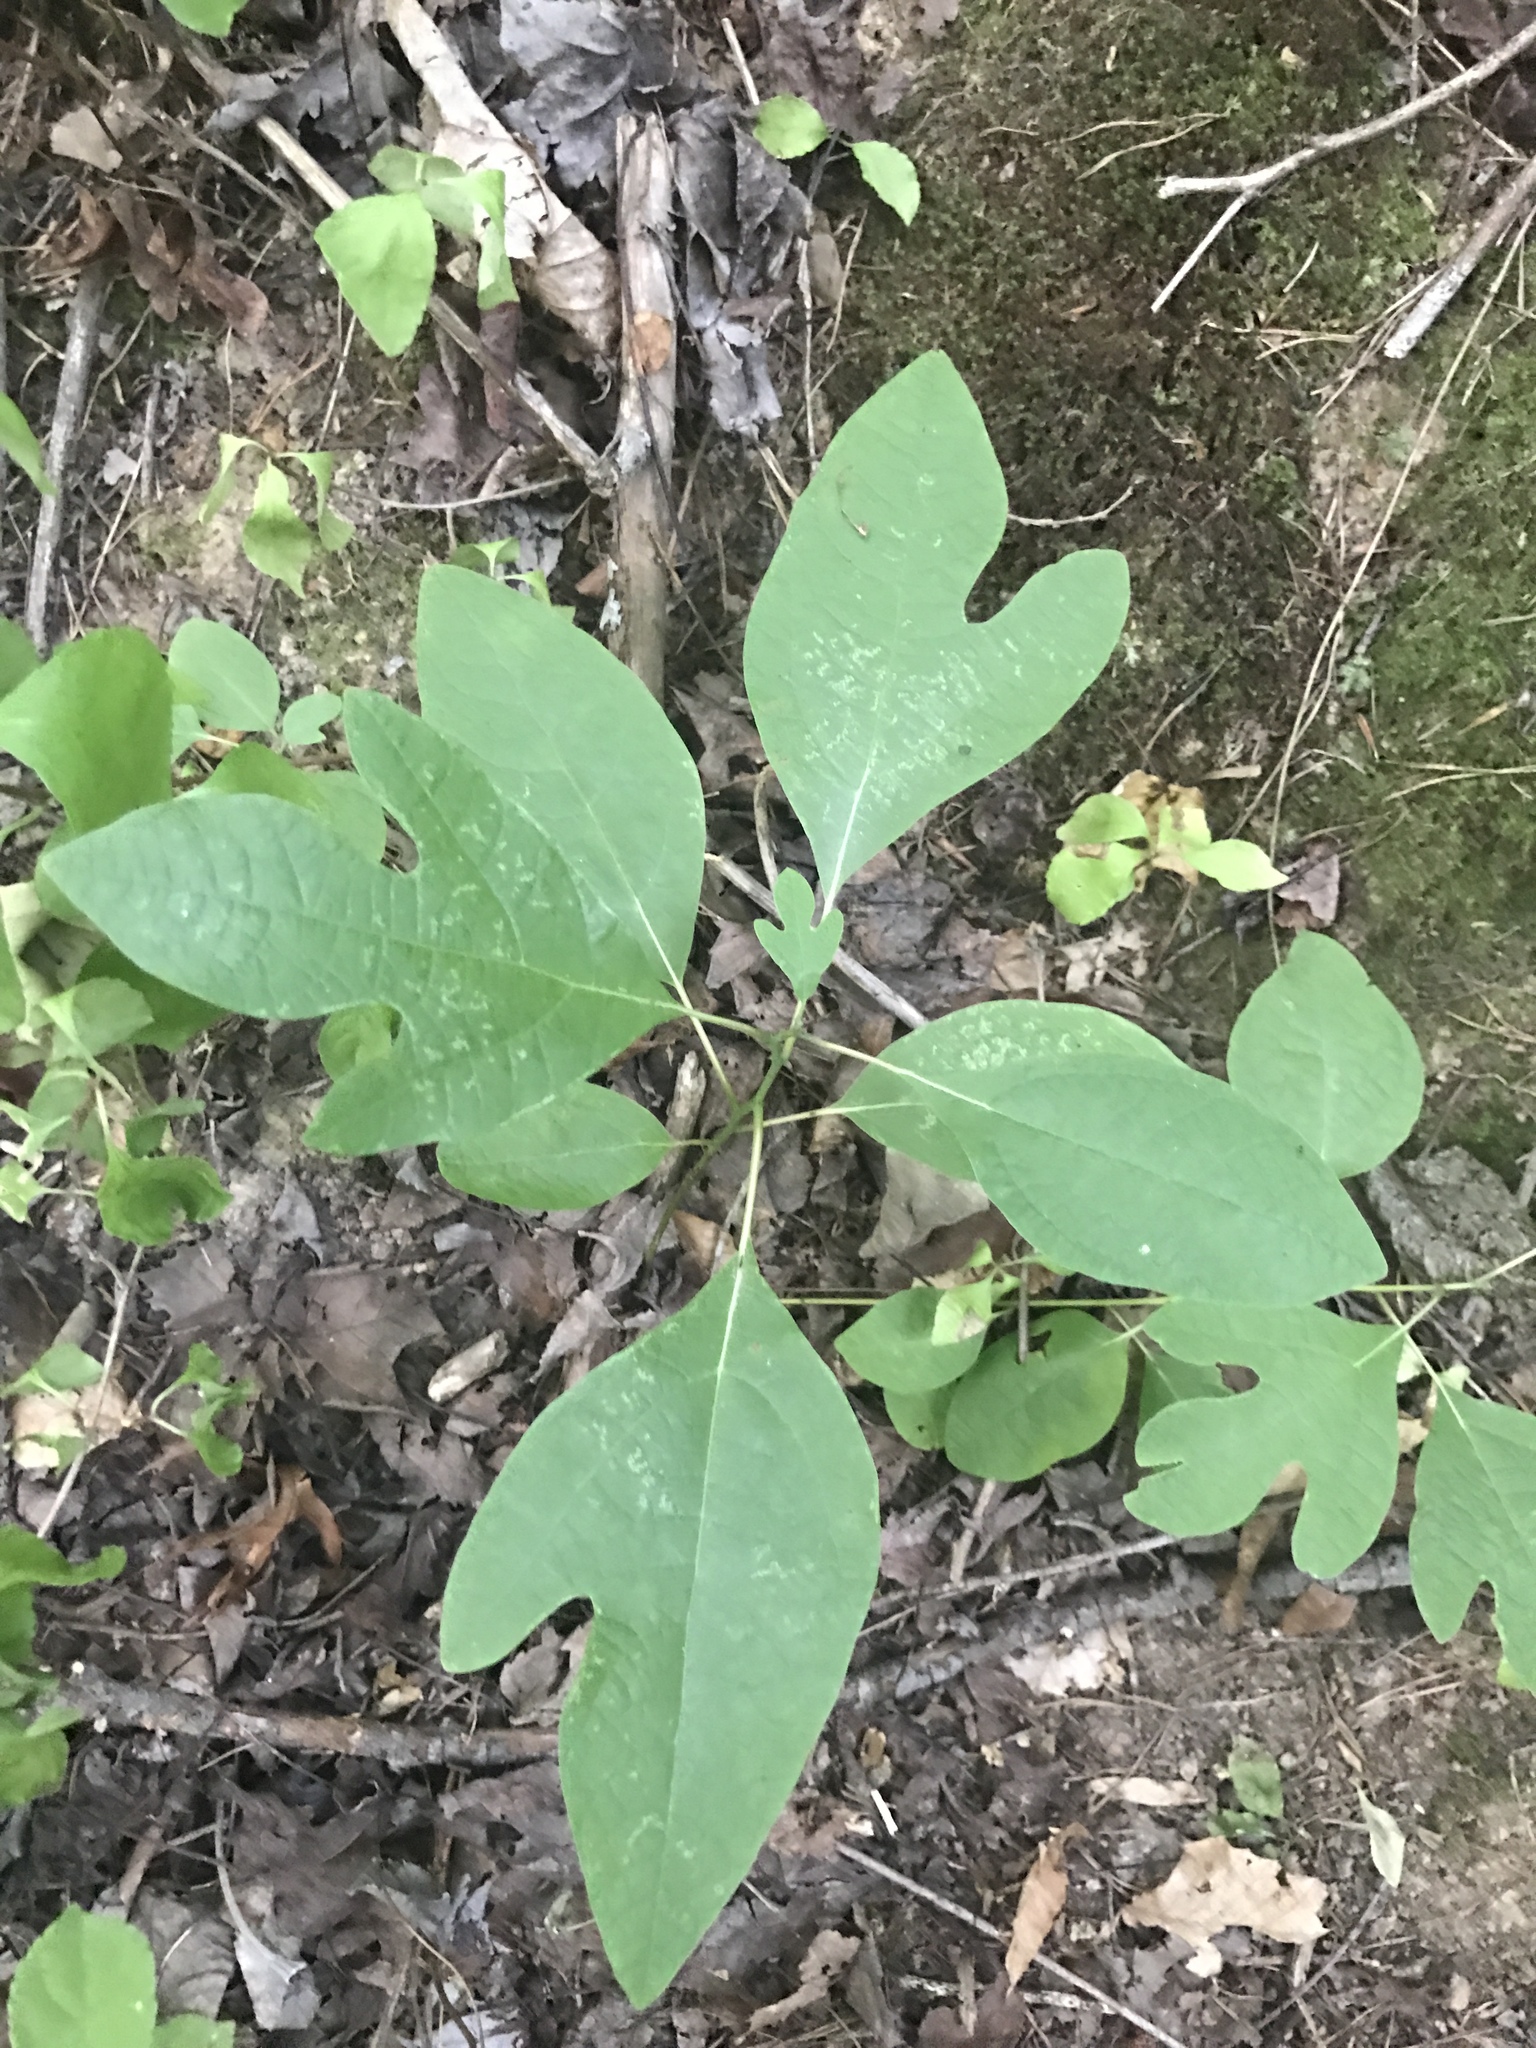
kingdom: Plantae
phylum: Tracheophyta
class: Magnoliopsida
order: Laurales
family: Lauraceae
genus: Sassafras
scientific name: Sassafras albidum
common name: Sassafras
